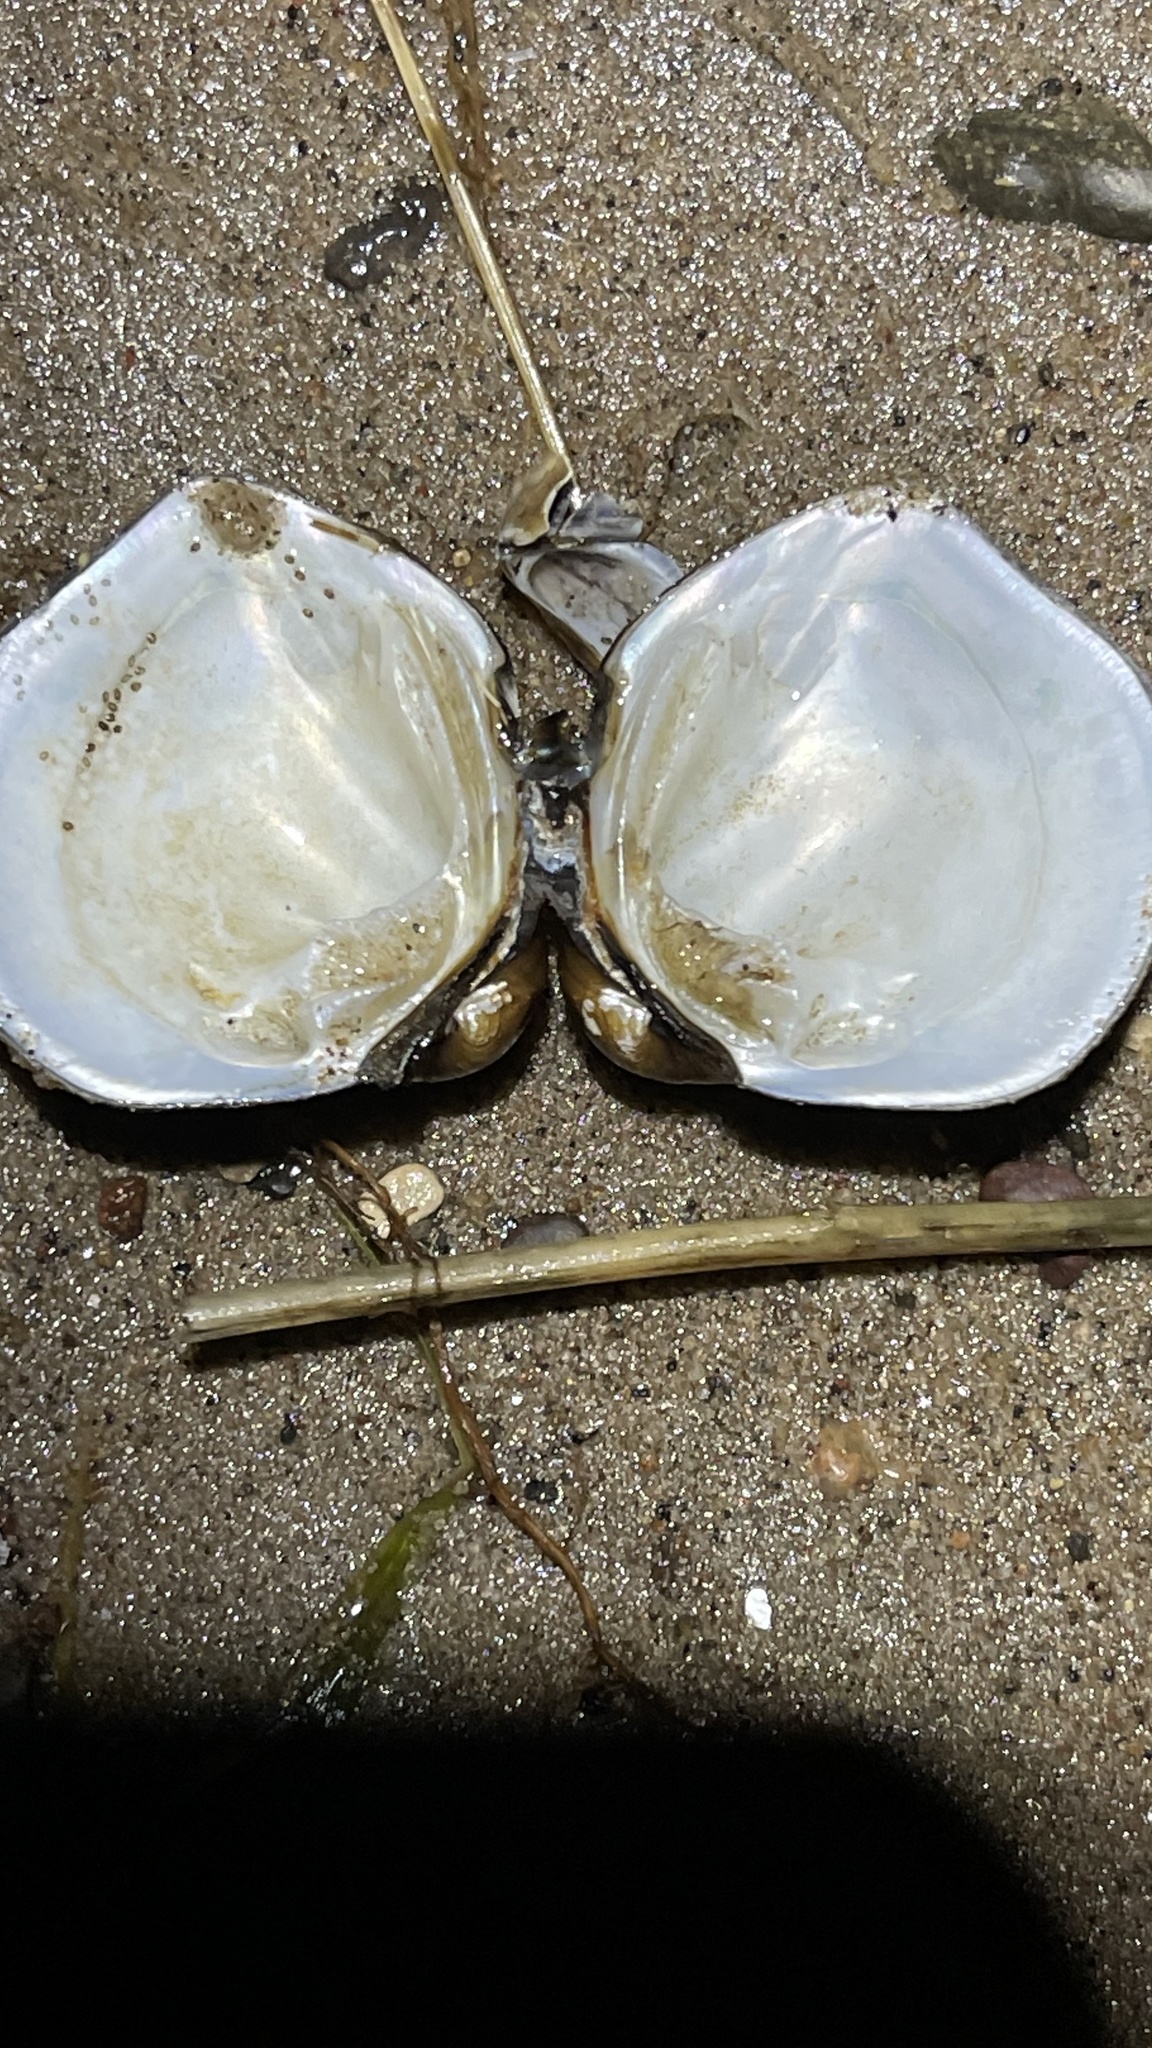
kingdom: Animalia
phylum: Mollusca
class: Bivalvia
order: Unionida
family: Unionidae
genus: Fusconaia
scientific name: Fusconaia flava
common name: Wabash pigtoe
